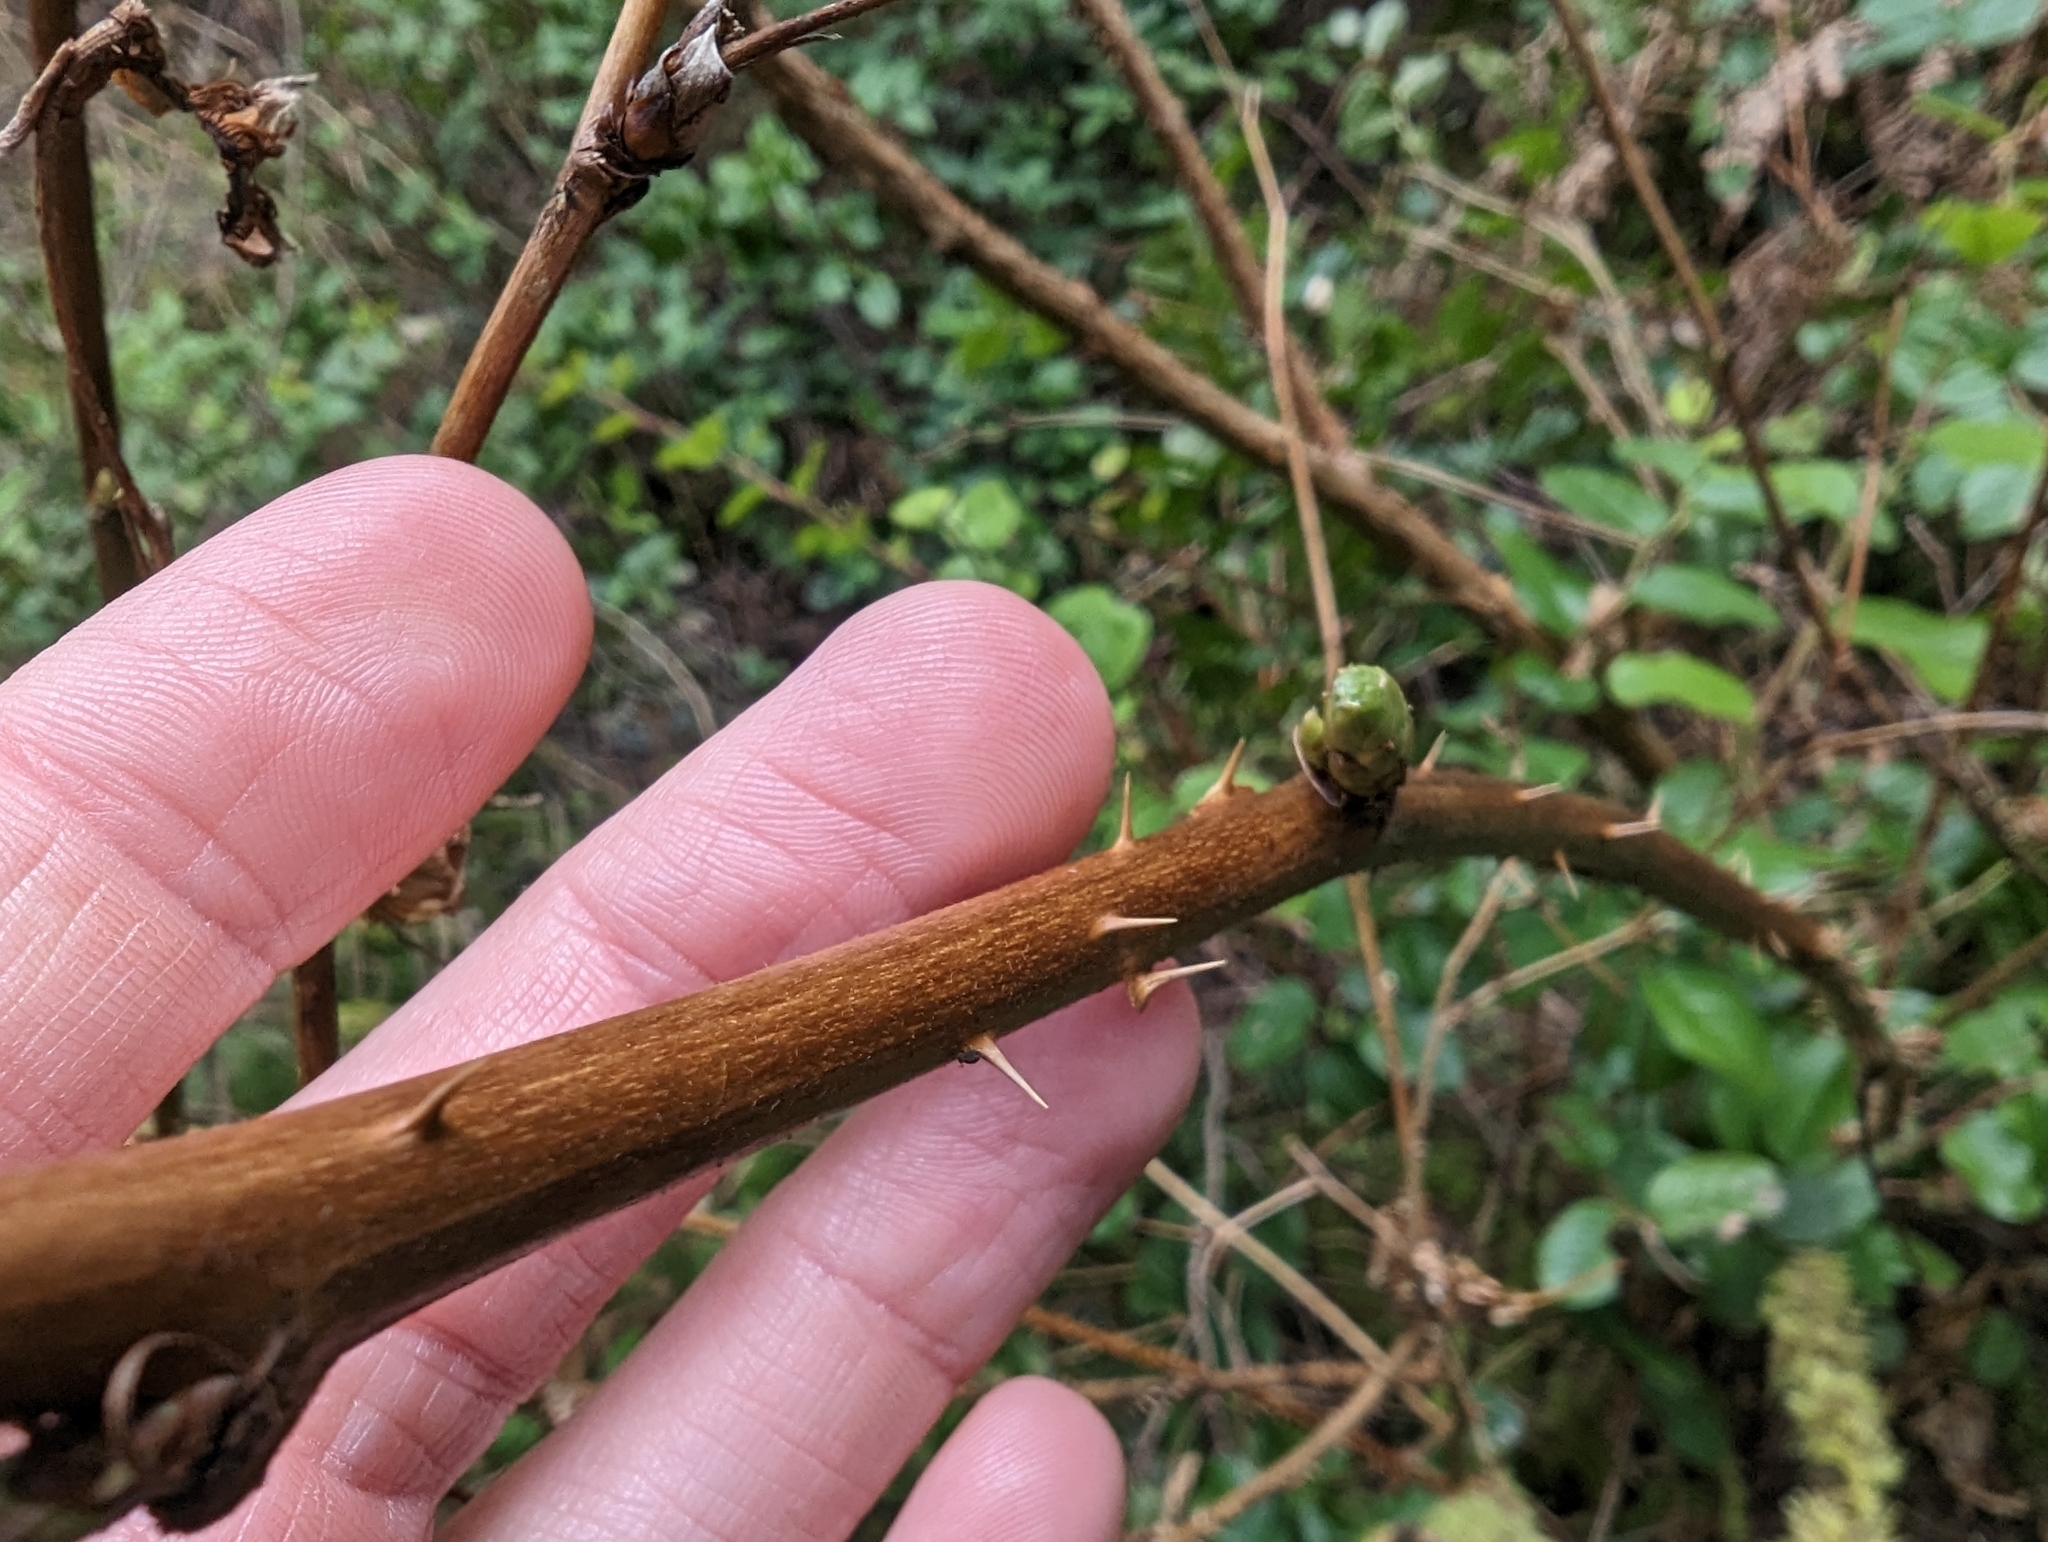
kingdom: Plantae
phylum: Tracheophyta
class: Magnoliopsida
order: Rosales
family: Rosaceae
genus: Rubus
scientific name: Rubus spectabilis
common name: Salmonberry
